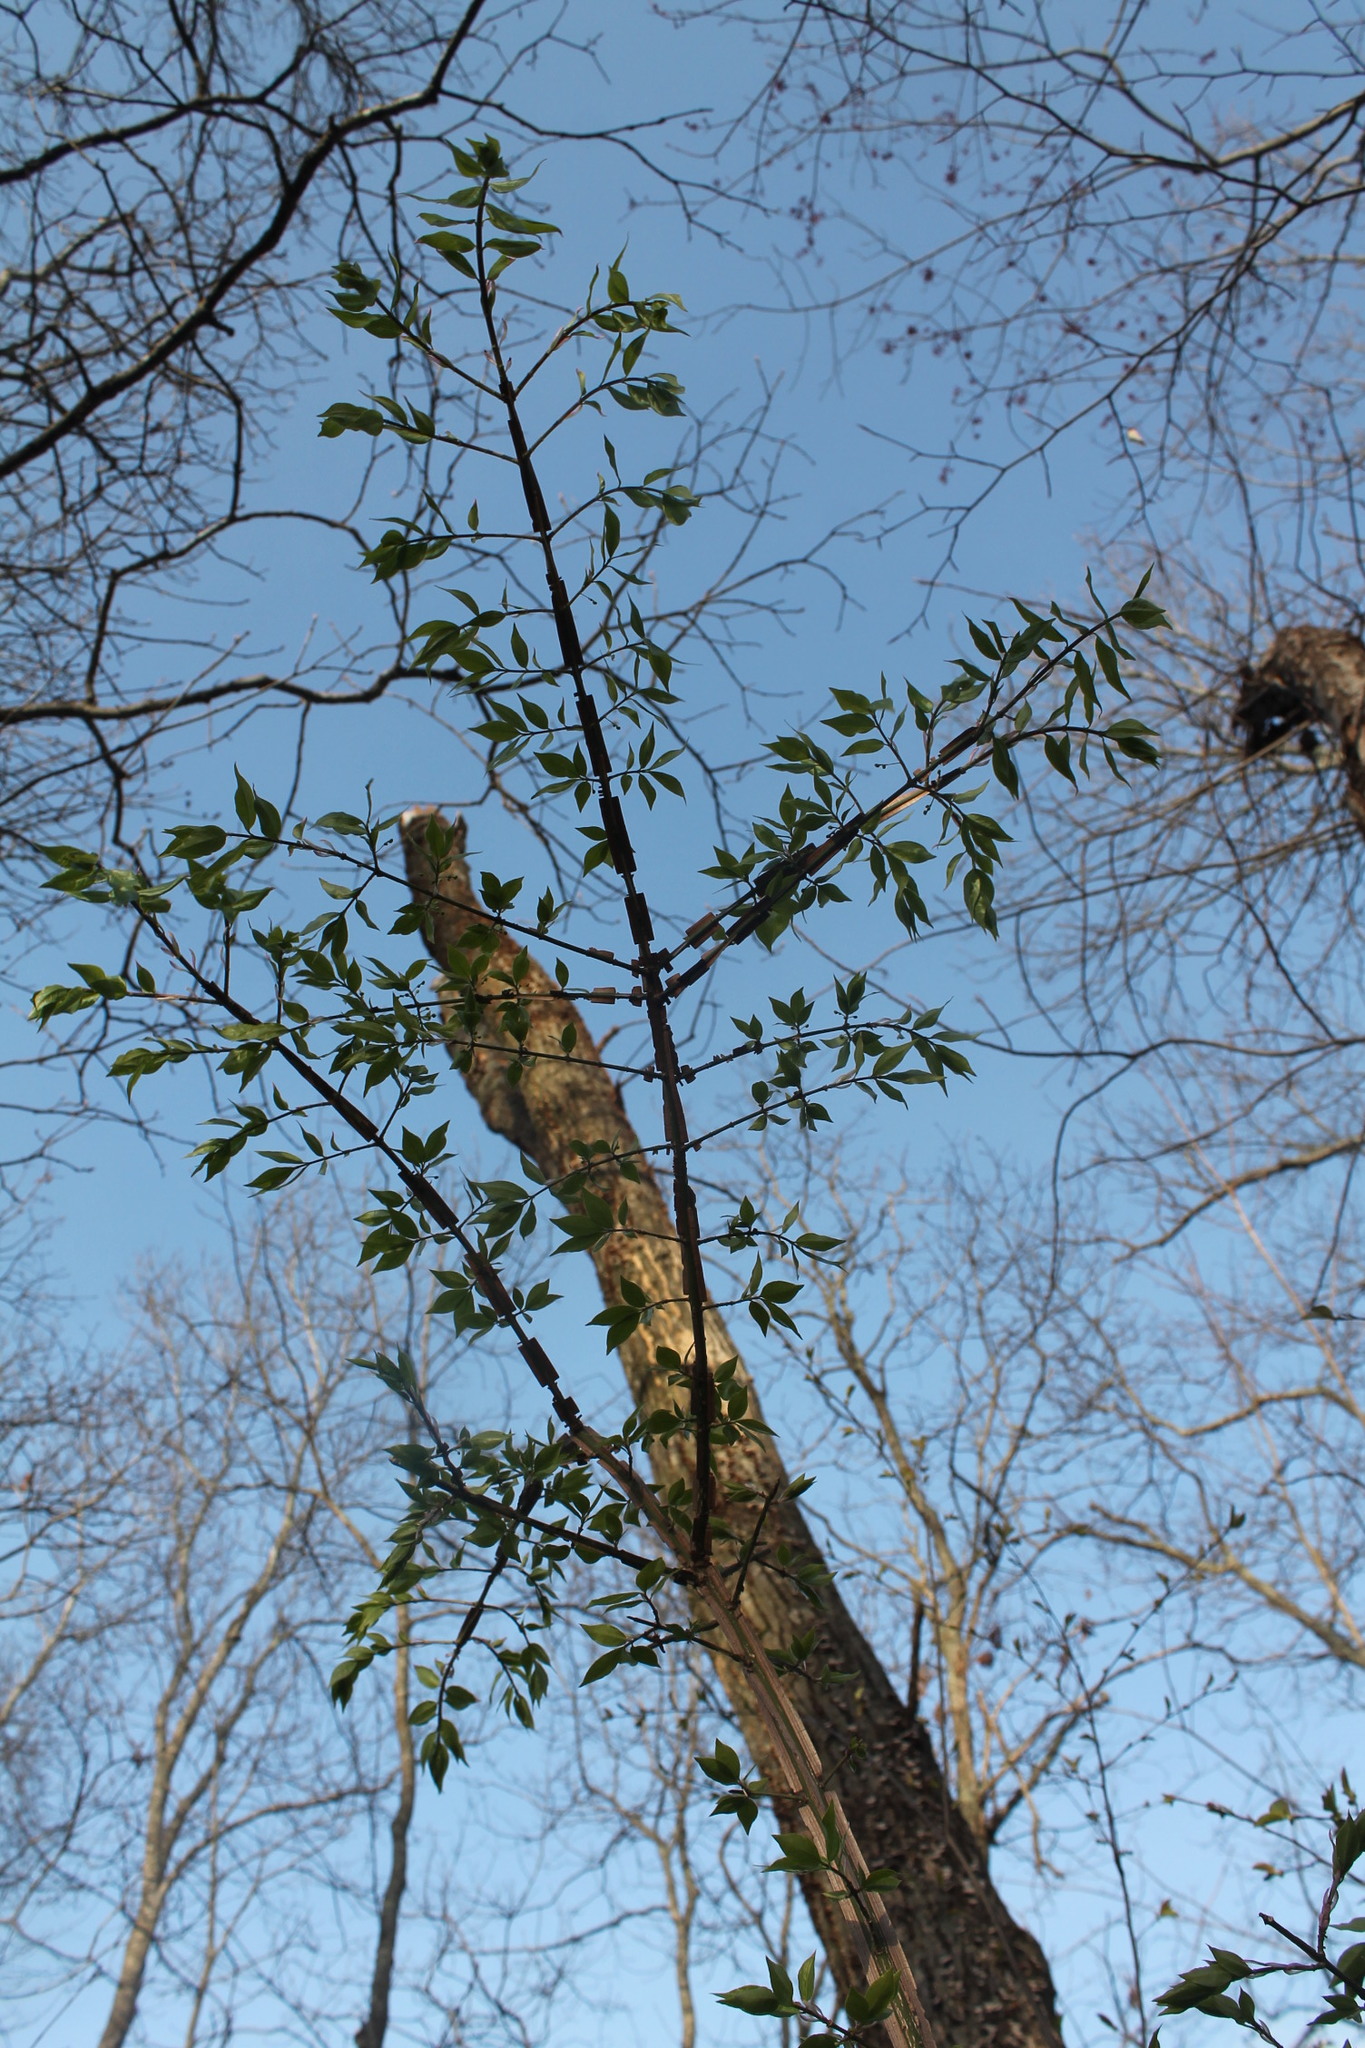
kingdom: Plantae
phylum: Tracheophyta
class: Magnoliopsida
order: Celastrales
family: Celastraceae
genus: Euonymus
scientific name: Euonymus alatus
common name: Winged euonymus
